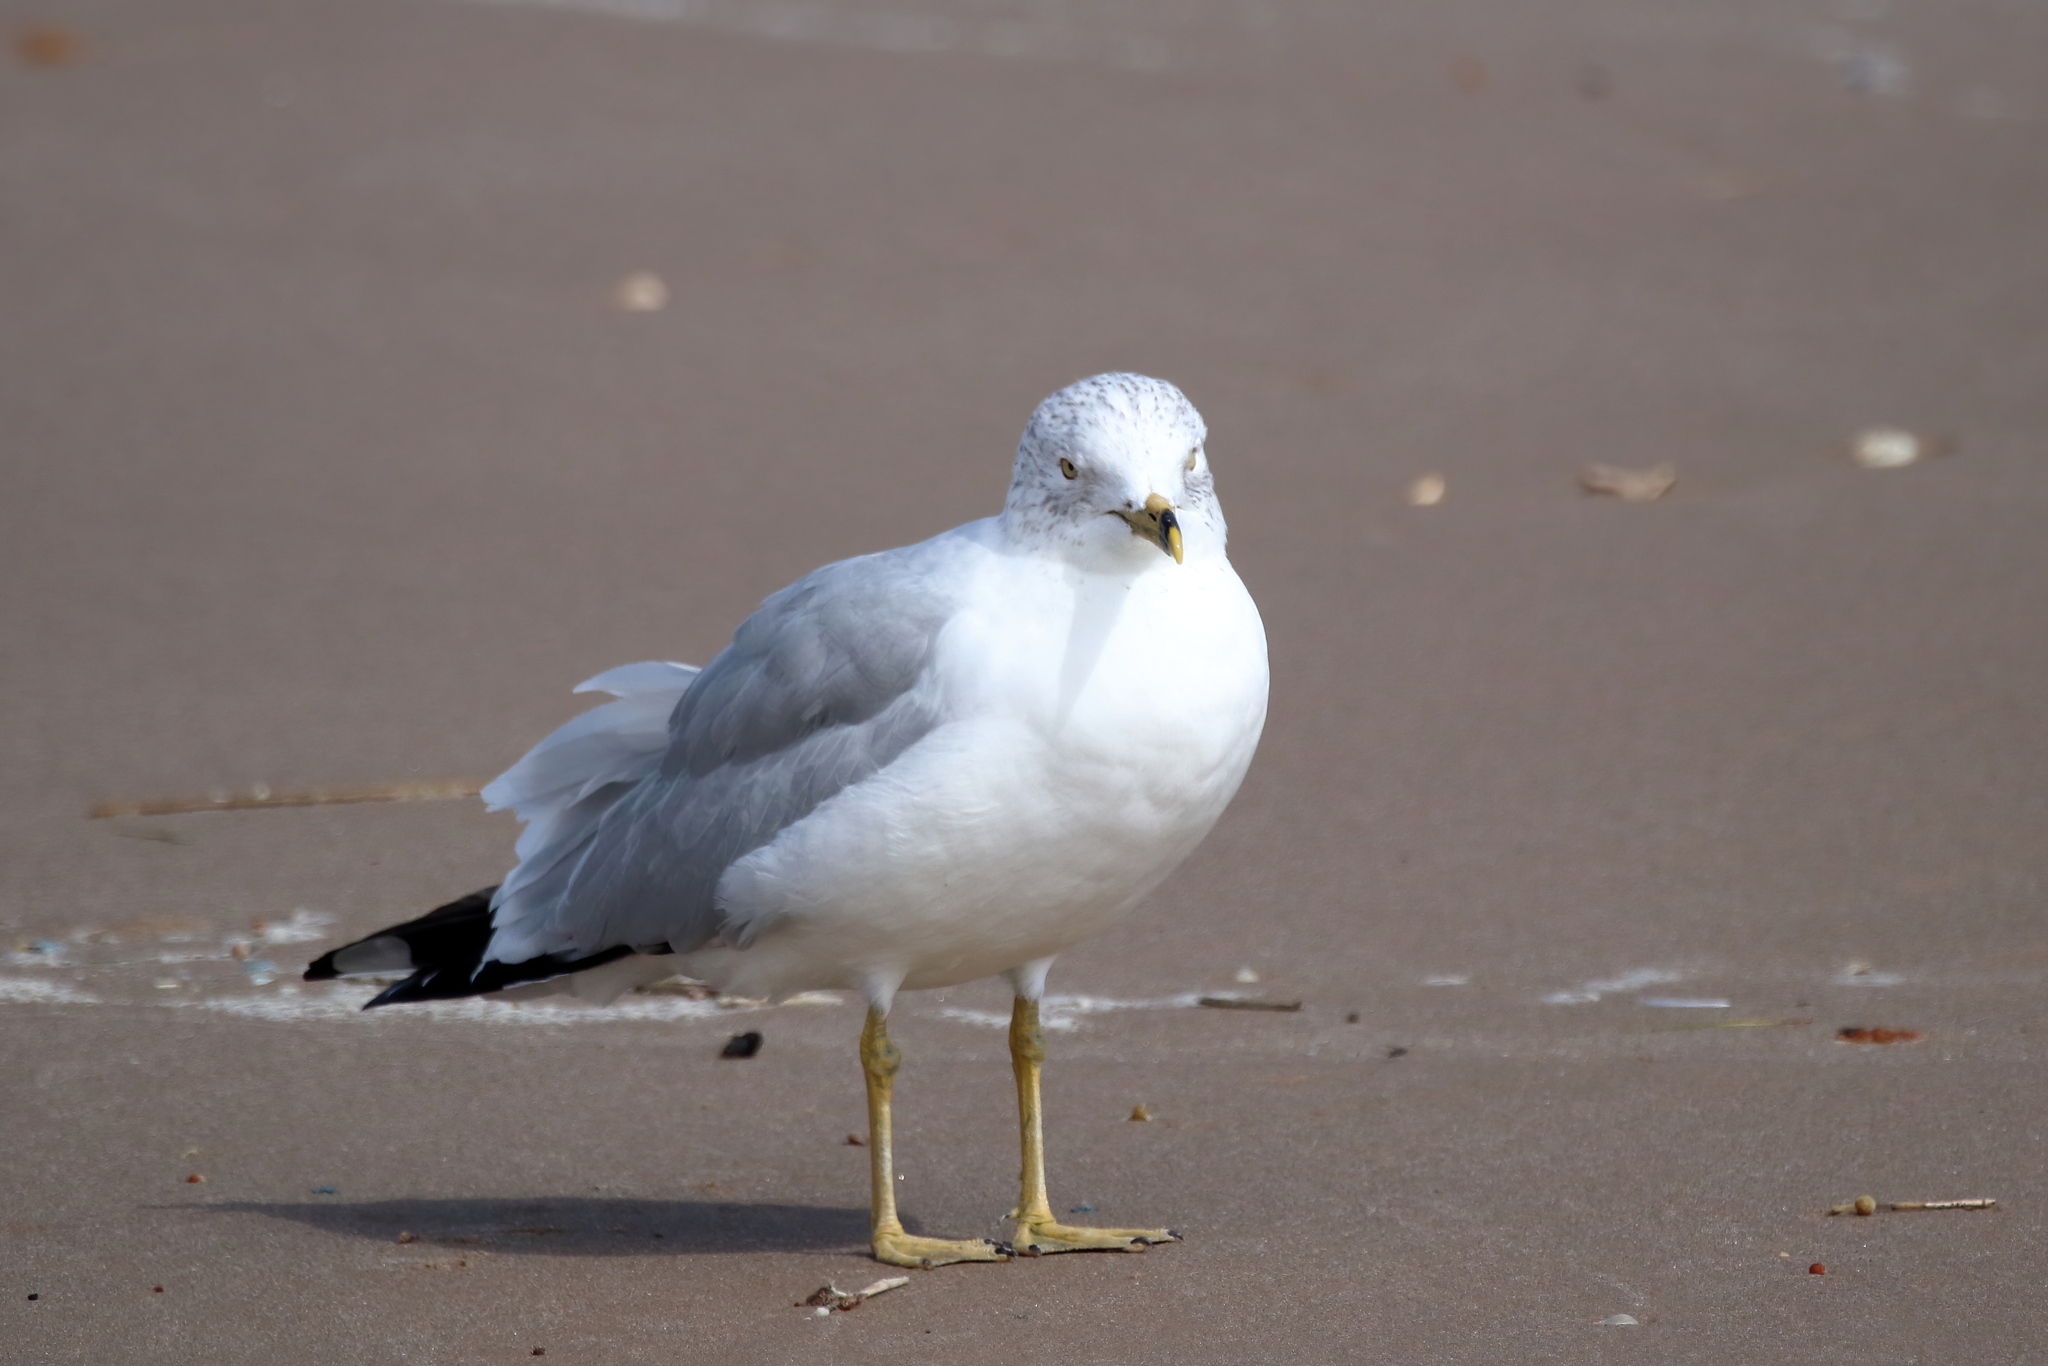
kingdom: Animalia
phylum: Chordata
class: Aves
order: Charadriiformes
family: Laridae
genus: Larus
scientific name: Larus delawarensis
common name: Ring-billed gull
